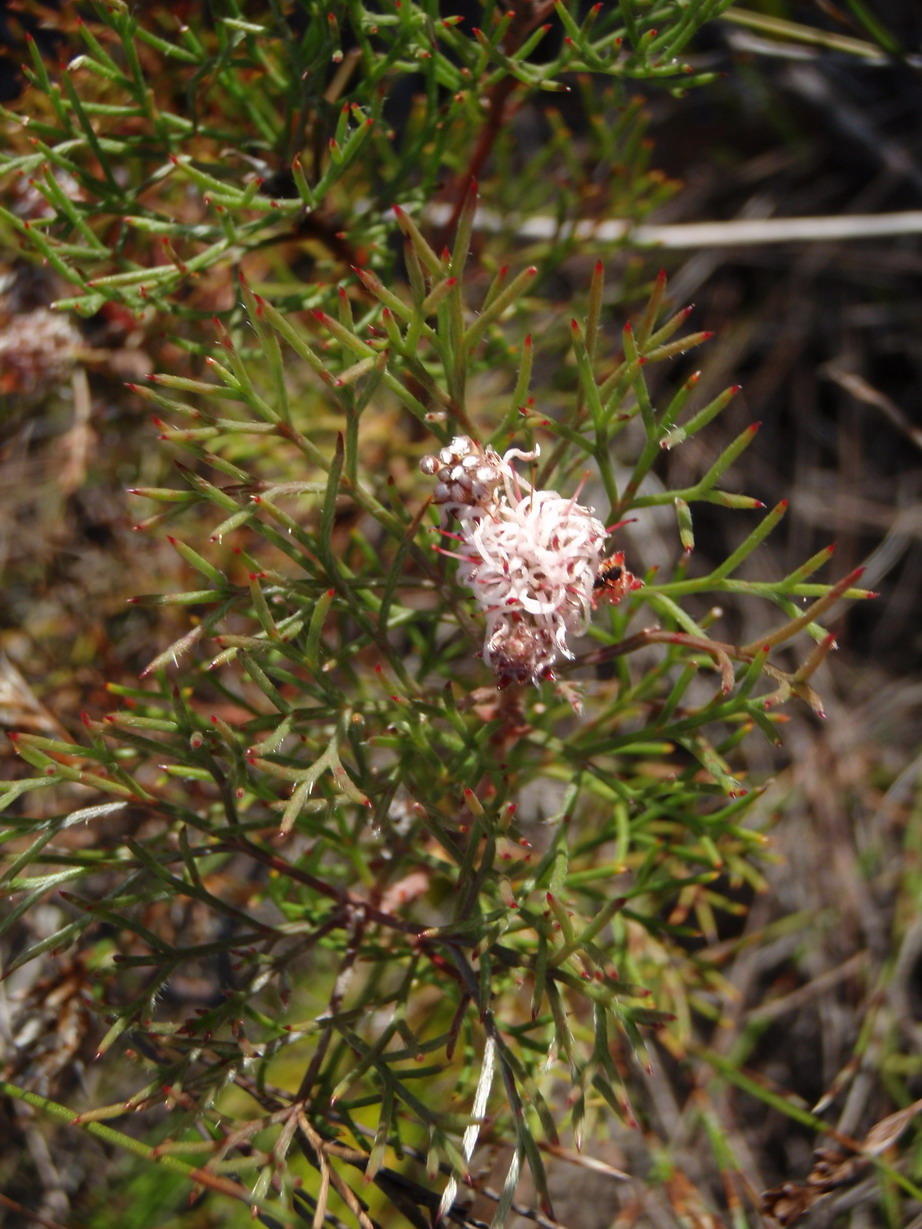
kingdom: Plantae
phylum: Tracheophyta
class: Magnoliopsida
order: Proteales
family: Proteaceae
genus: Serruria
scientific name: Serruria fasciflora
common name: Common pin spiderhead
